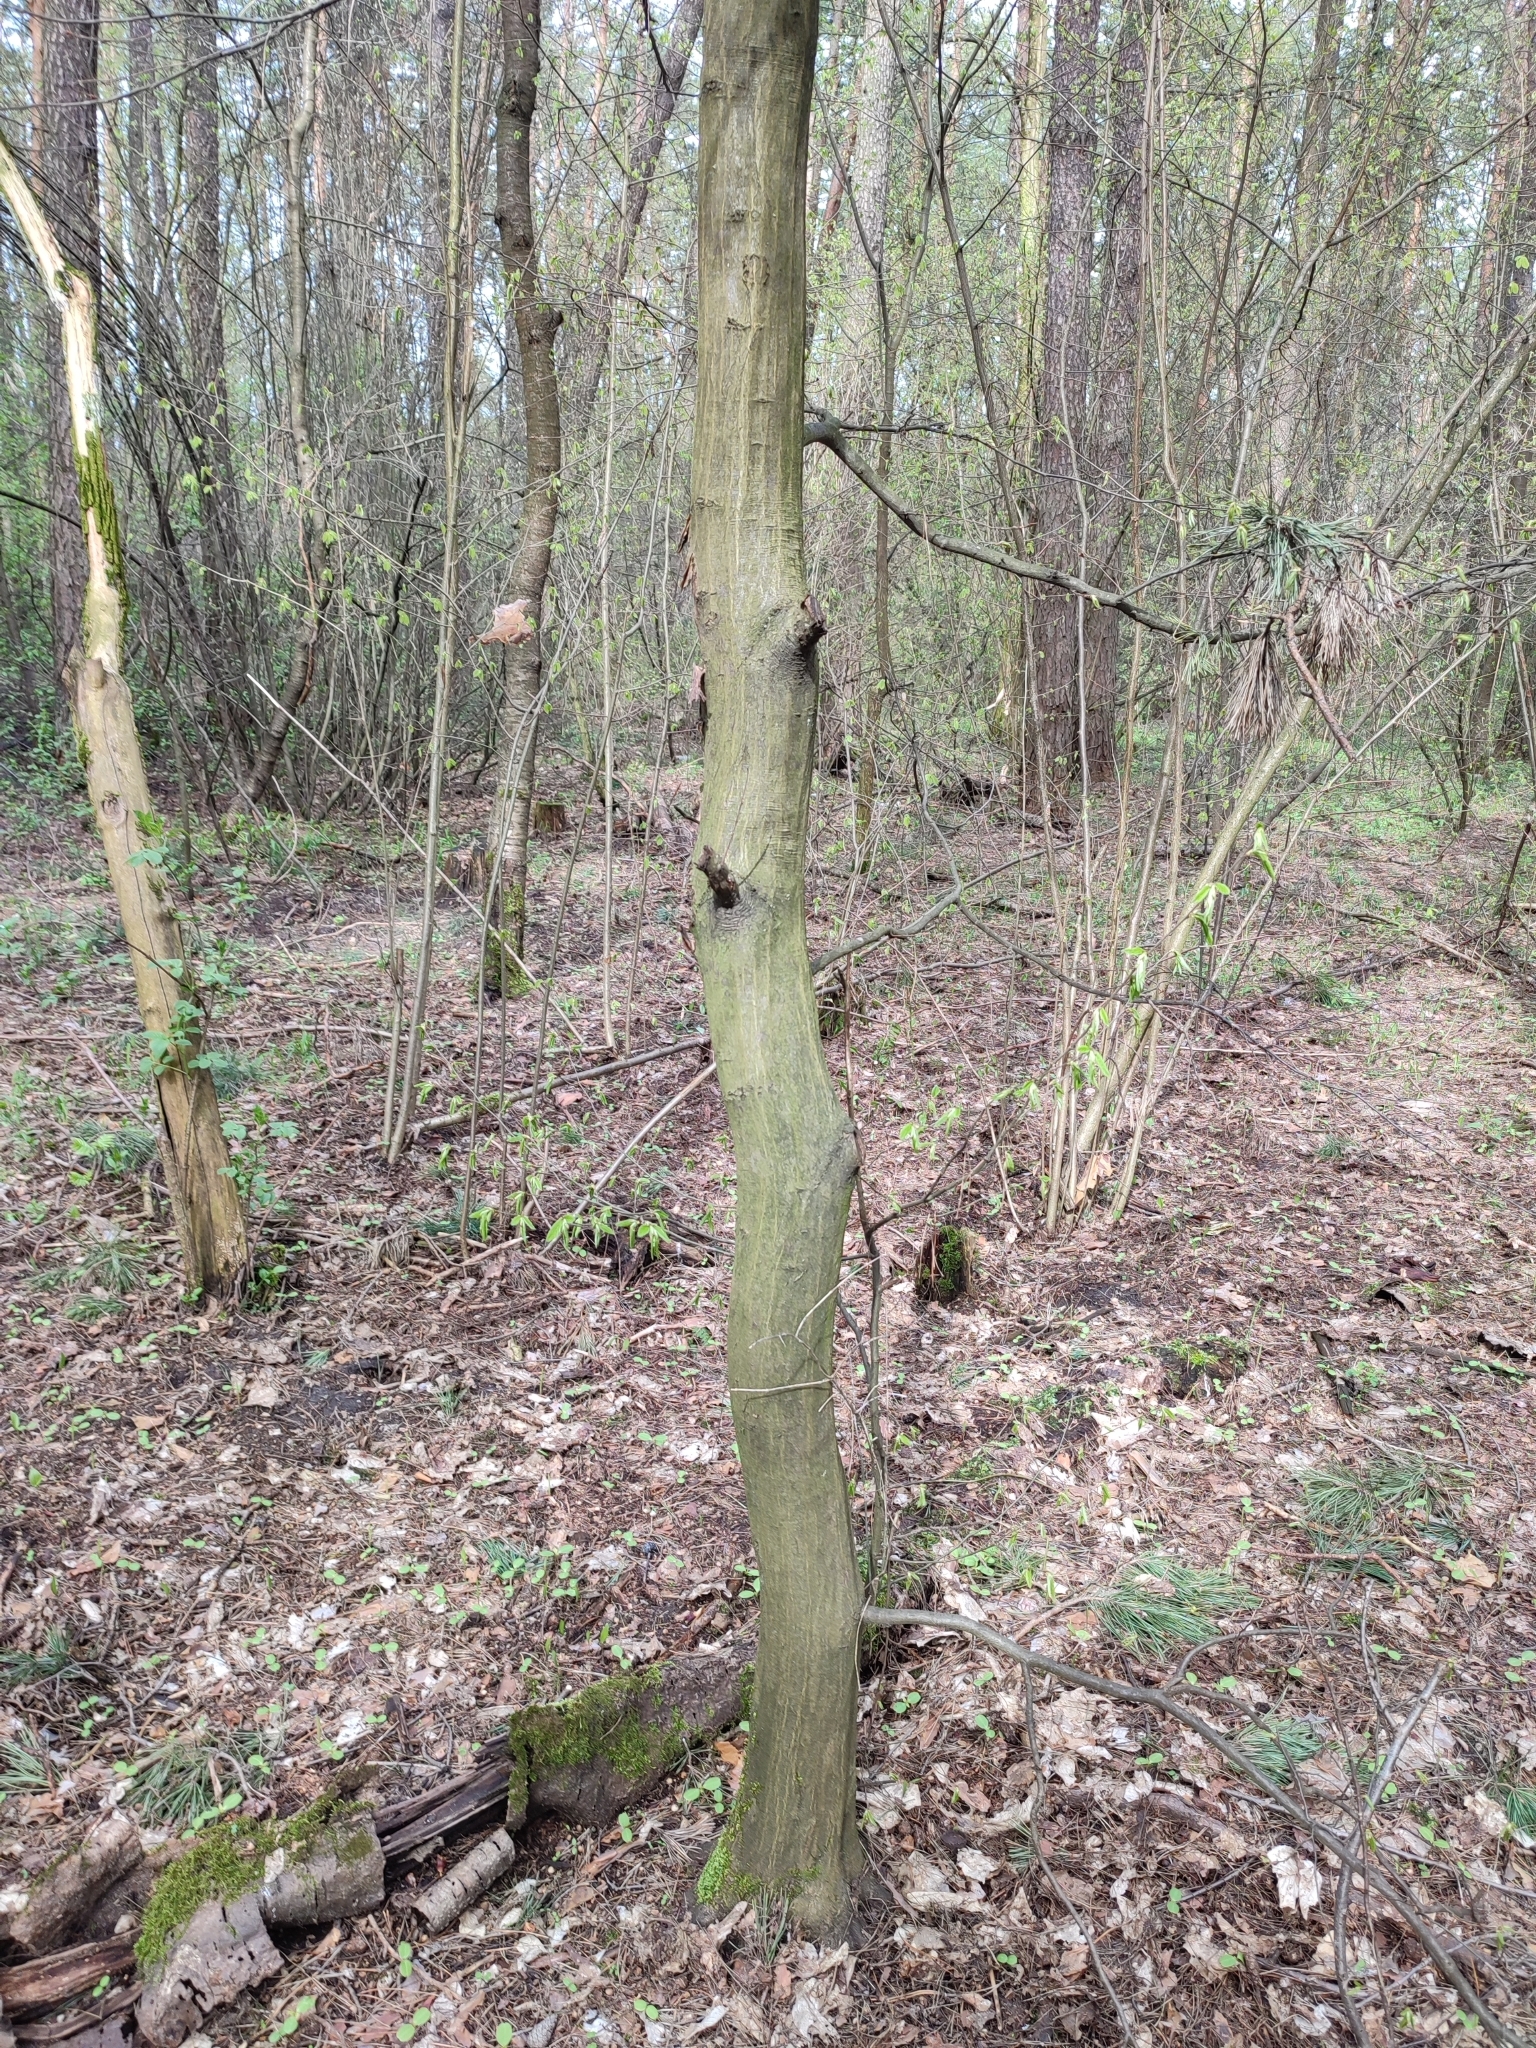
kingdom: Plantae
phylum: Tracheophyta
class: Magnoliopsida
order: Fagales
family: Betulaceae
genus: Carpinus
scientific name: Carpinus betulus
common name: Hornbeam
